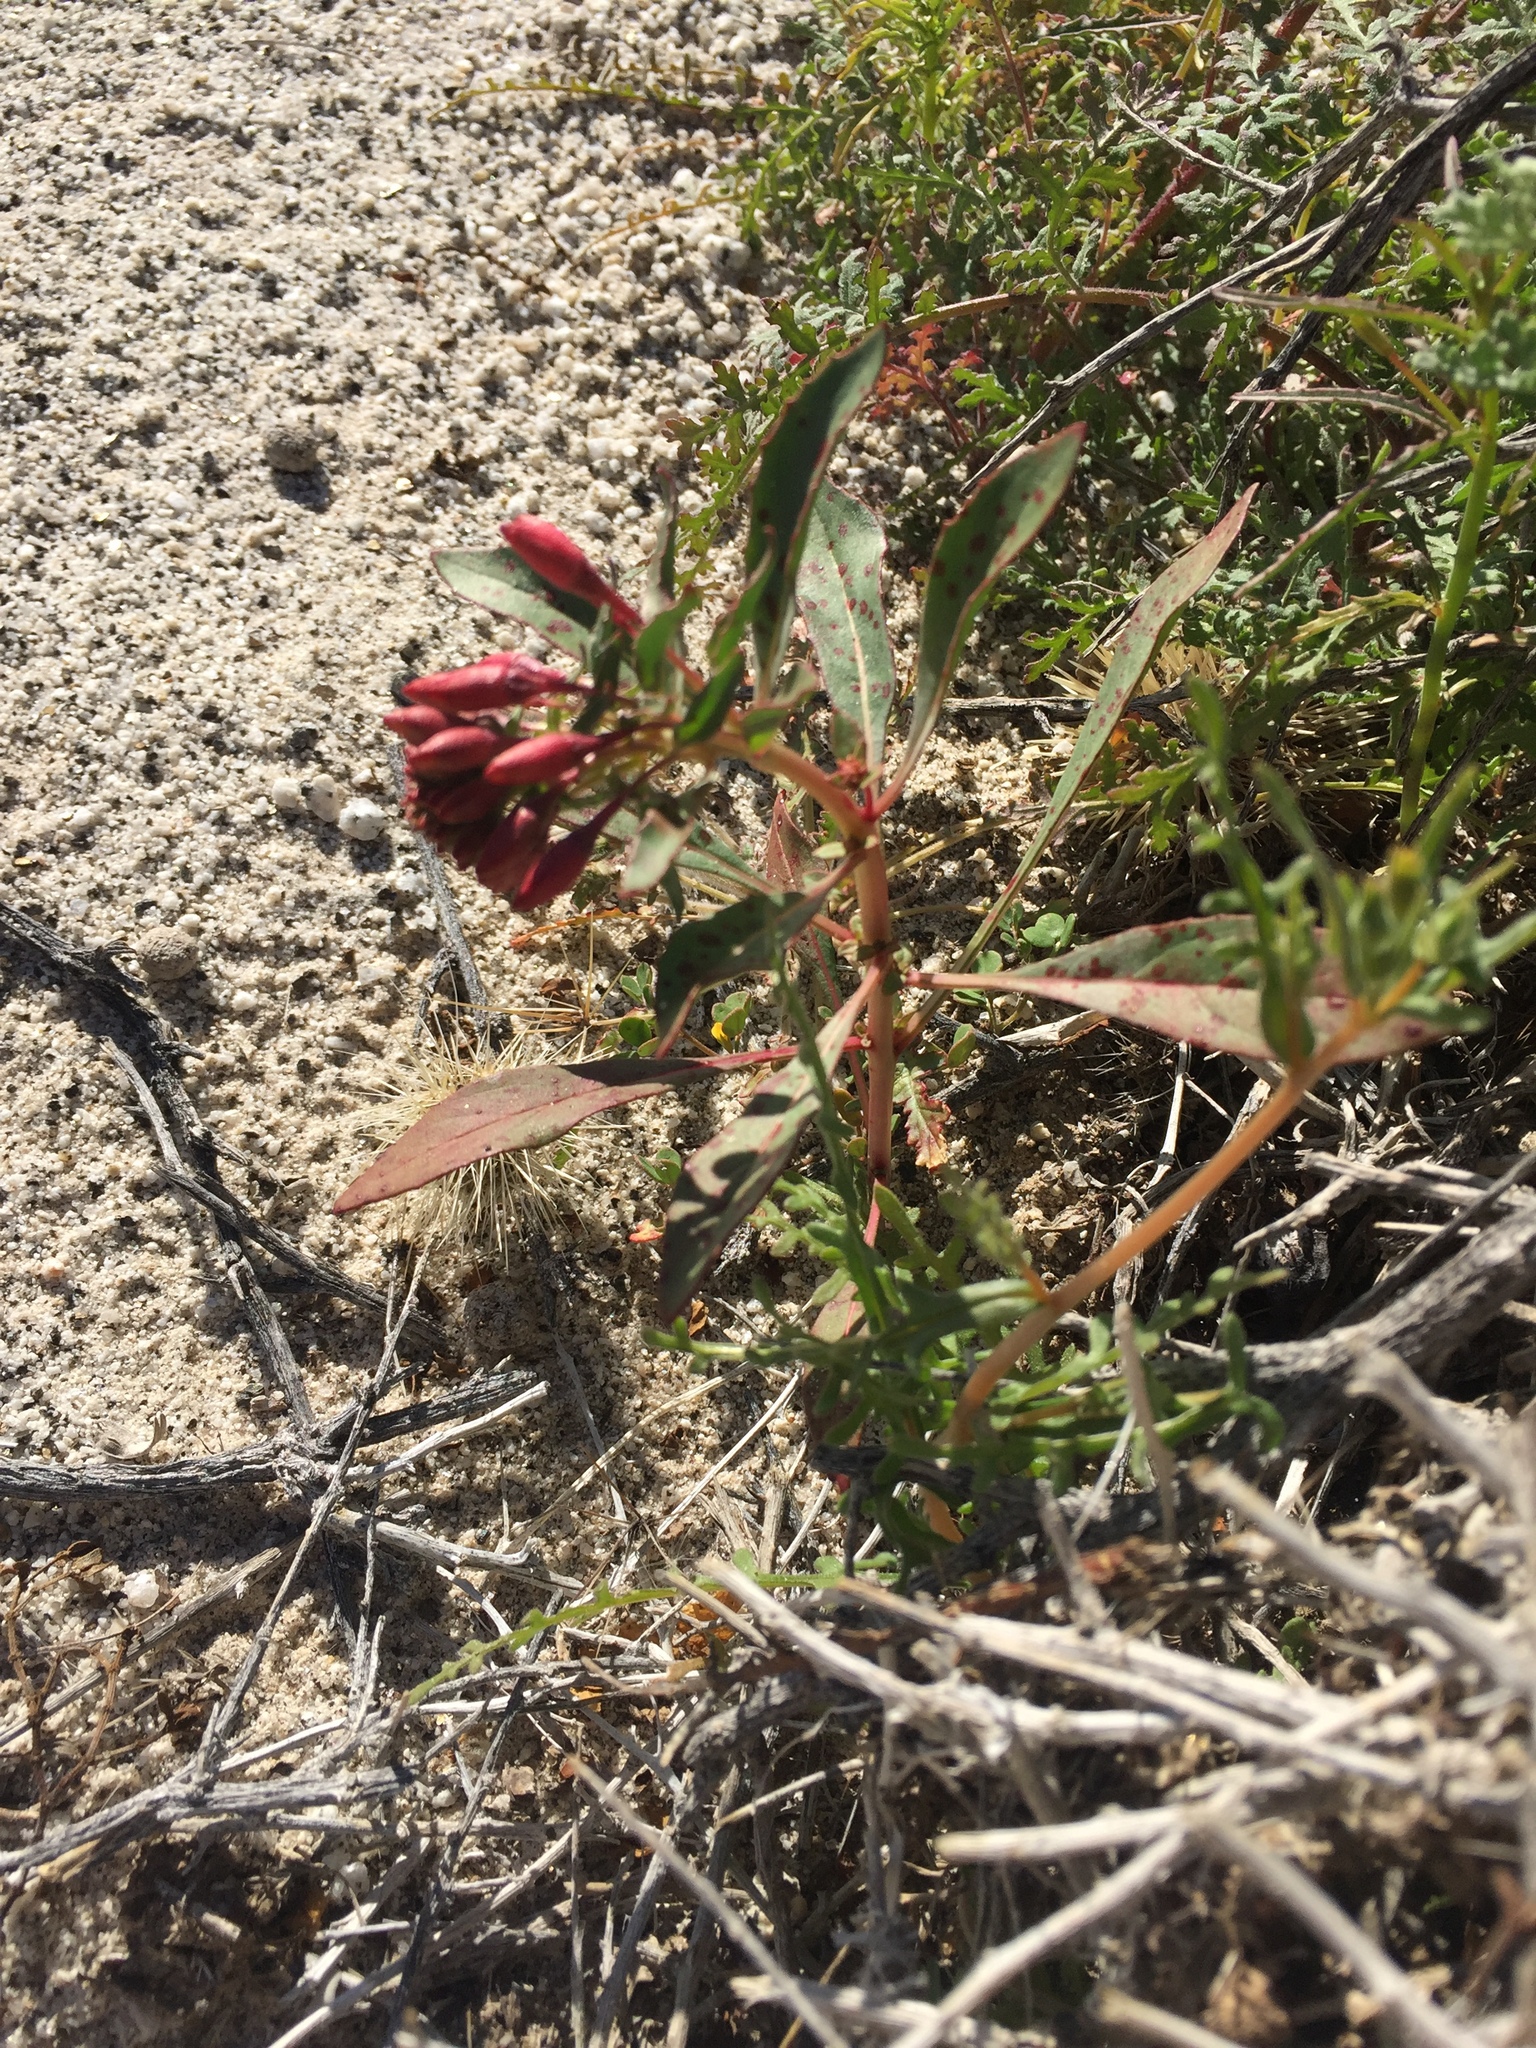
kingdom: Plantae
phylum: Tracheophyta
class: Magnoliopsida
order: Myrtales
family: Onagraceae
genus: Eremothera
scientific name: Eremothera boothii
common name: Booth's evening primrose
